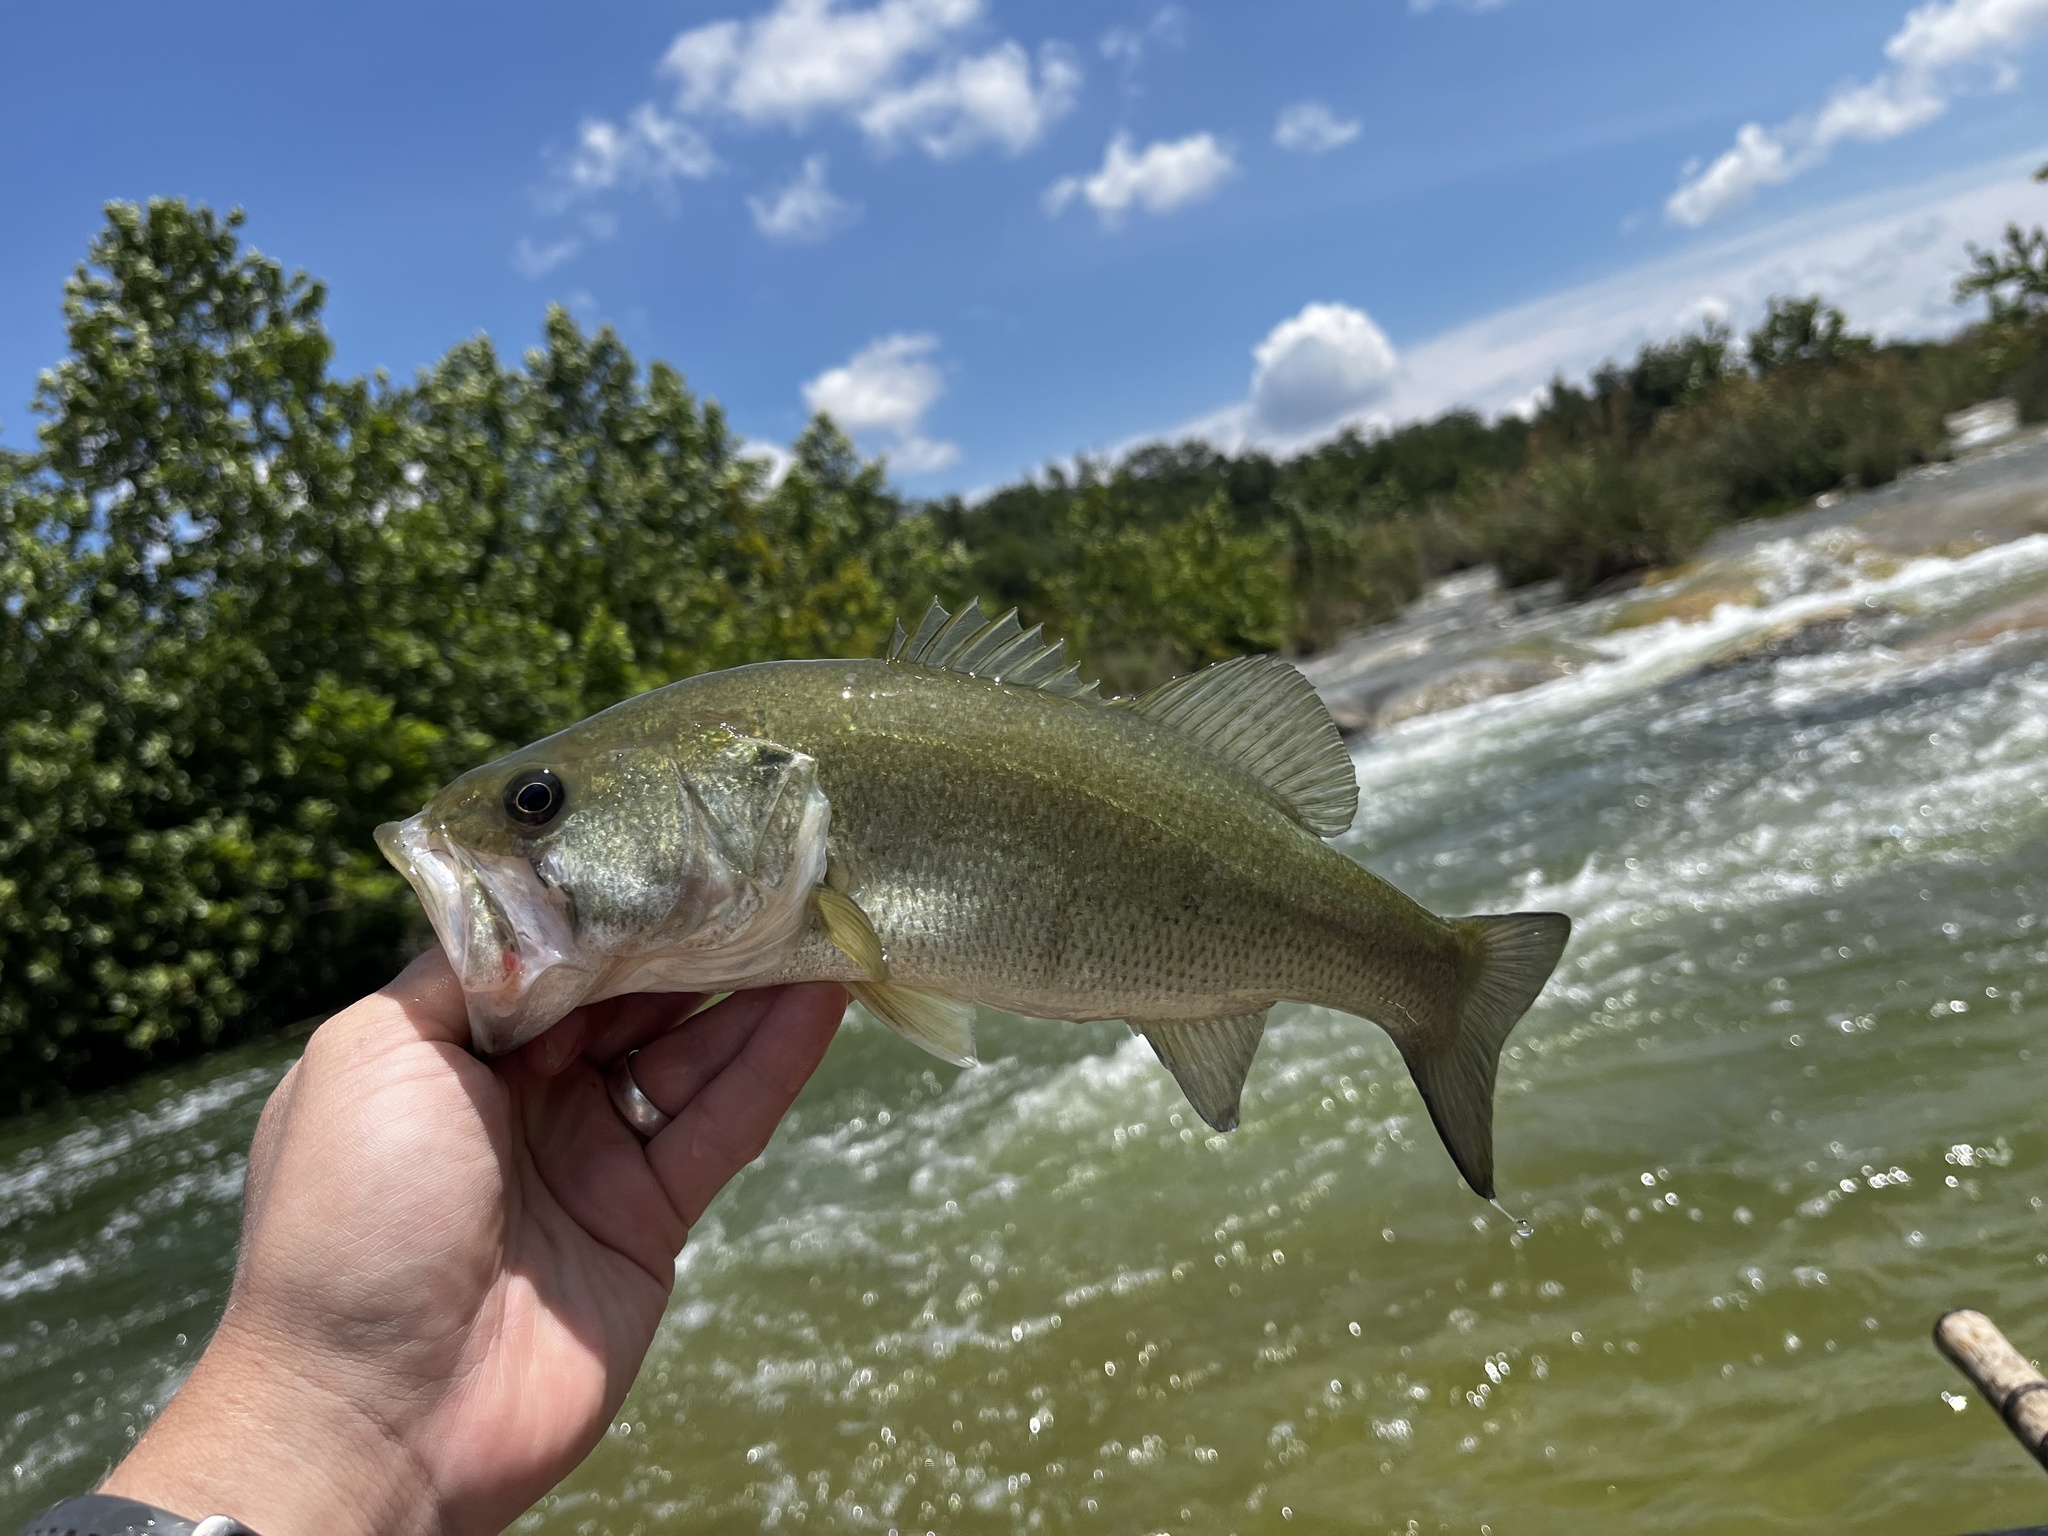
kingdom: Animalia
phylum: Chordata
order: Perciformes
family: Centrarchidae
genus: Micropterus
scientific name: Micropterus
